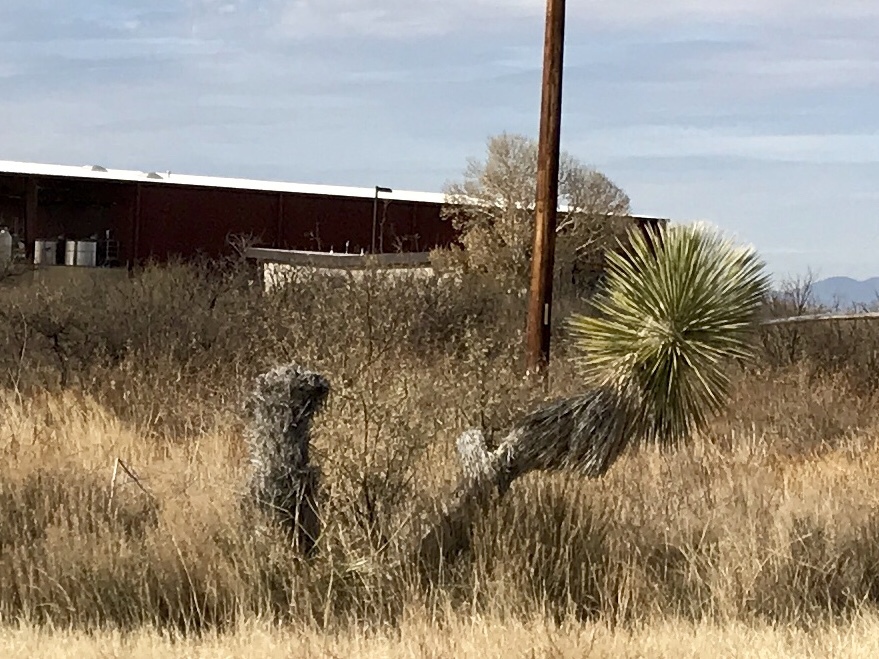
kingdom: Plantae
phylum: Tracheophyta
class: Liliopsida
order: Asparagales
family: Asparagaceae
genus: Yucca
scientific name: Yucca elata
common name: Palmella
